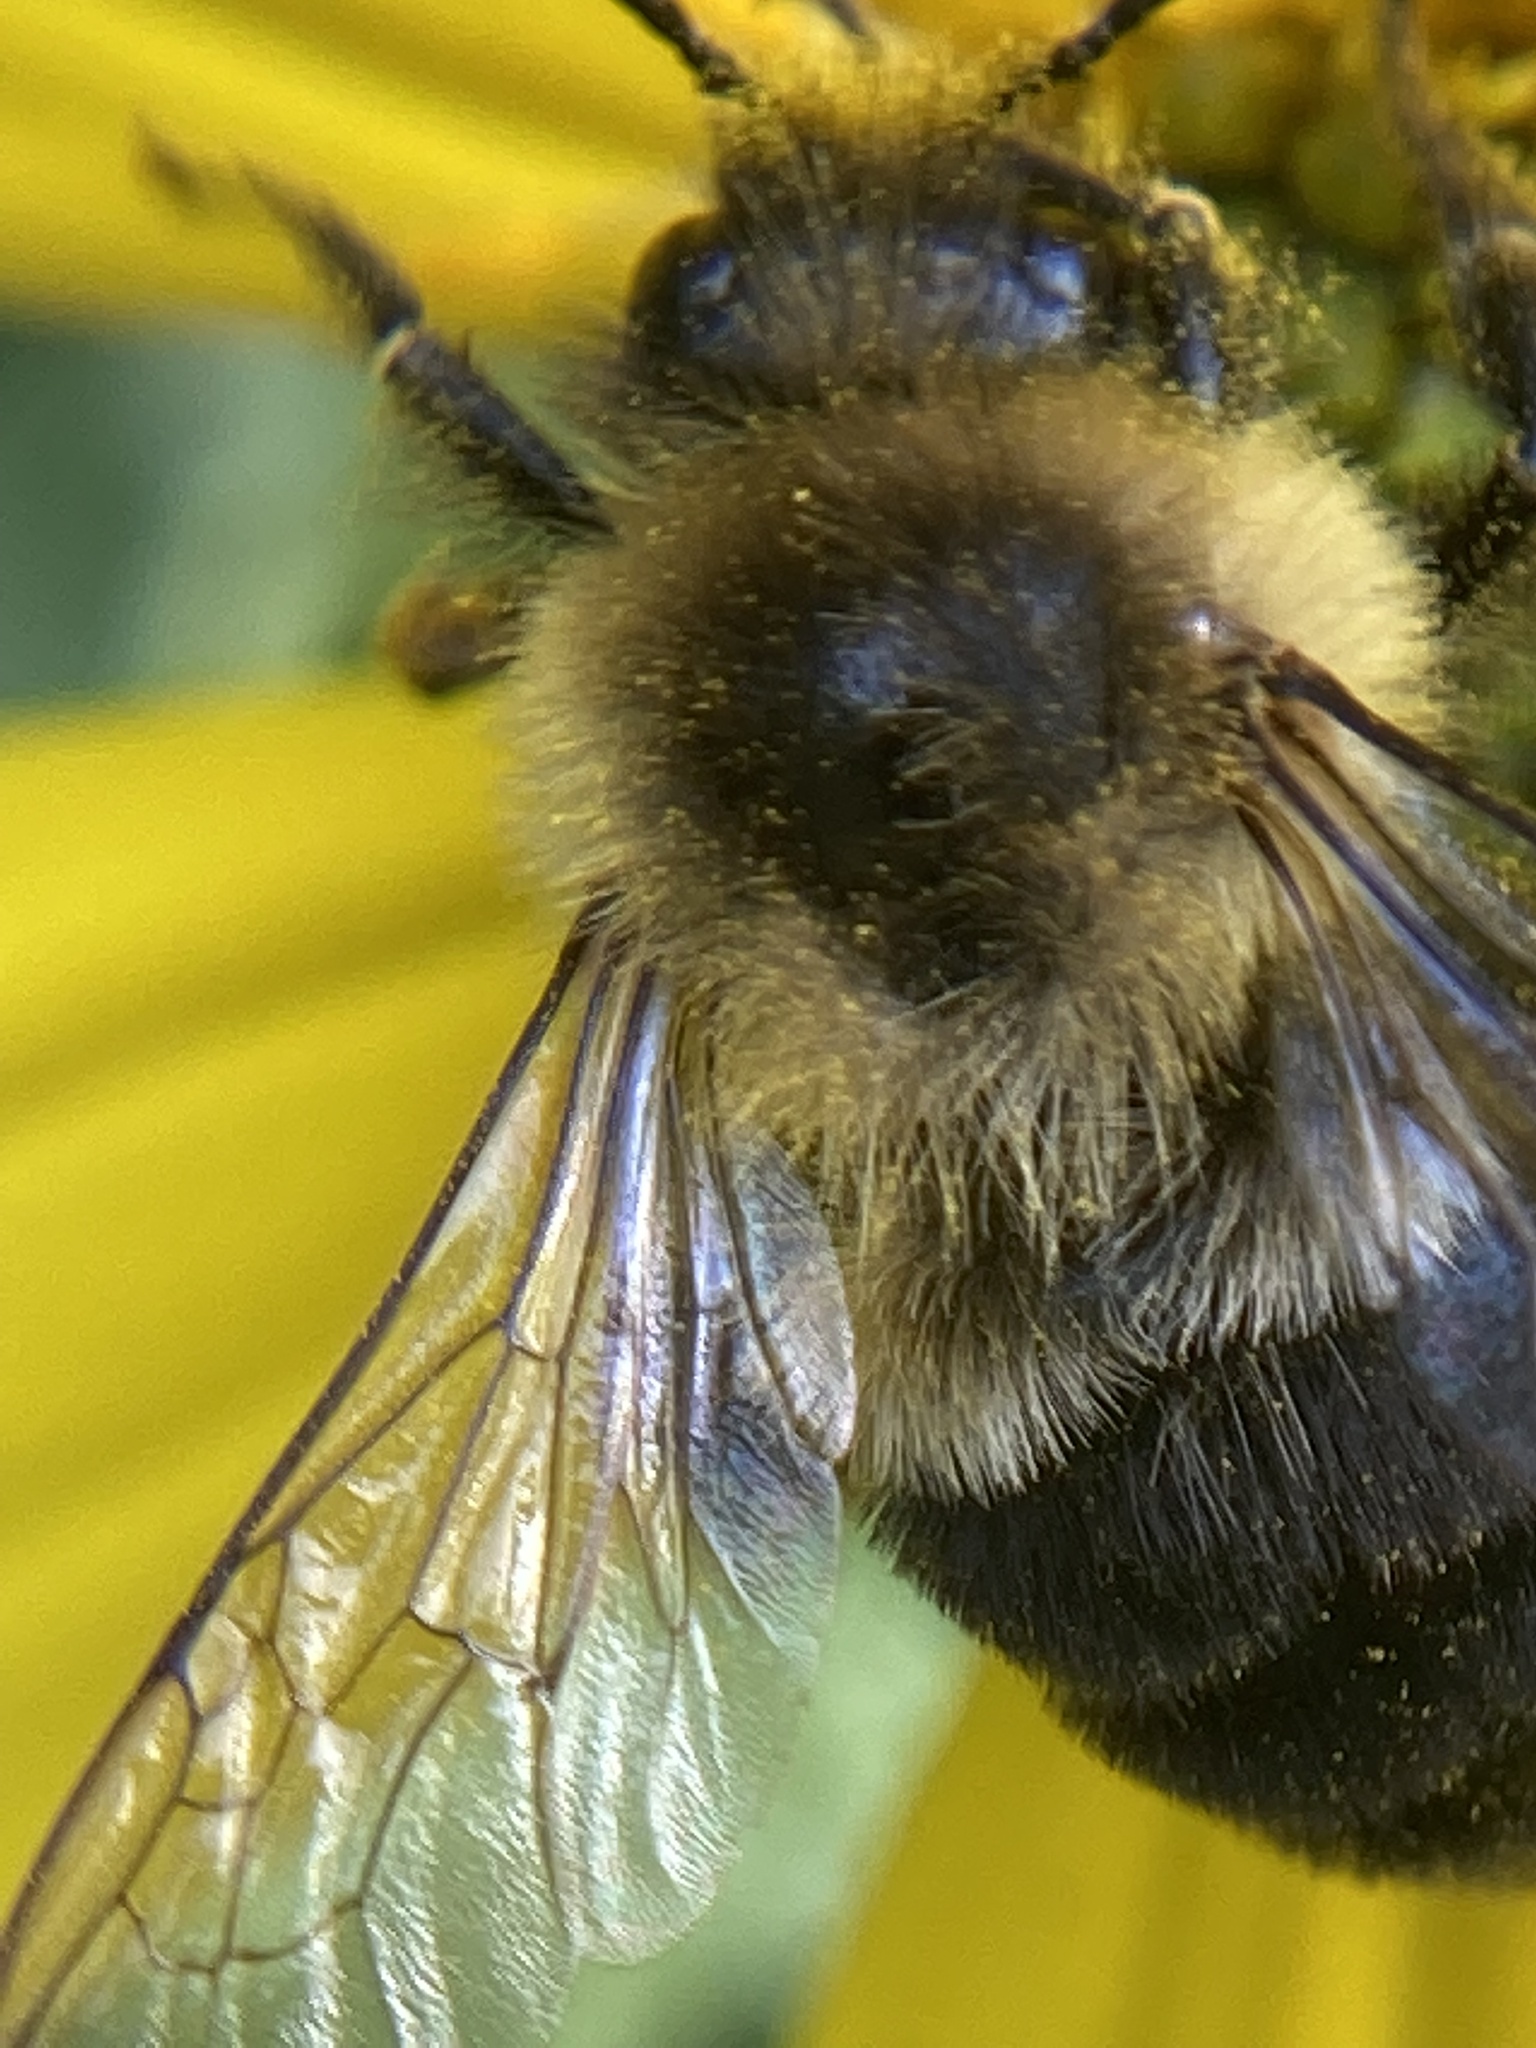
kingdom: Animalia
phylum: Arthropoda
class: Insecta
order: Hymenoptera
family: Apidae
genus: Bombus
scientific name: Bombus impatiens
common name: Common eastern bumble bee
